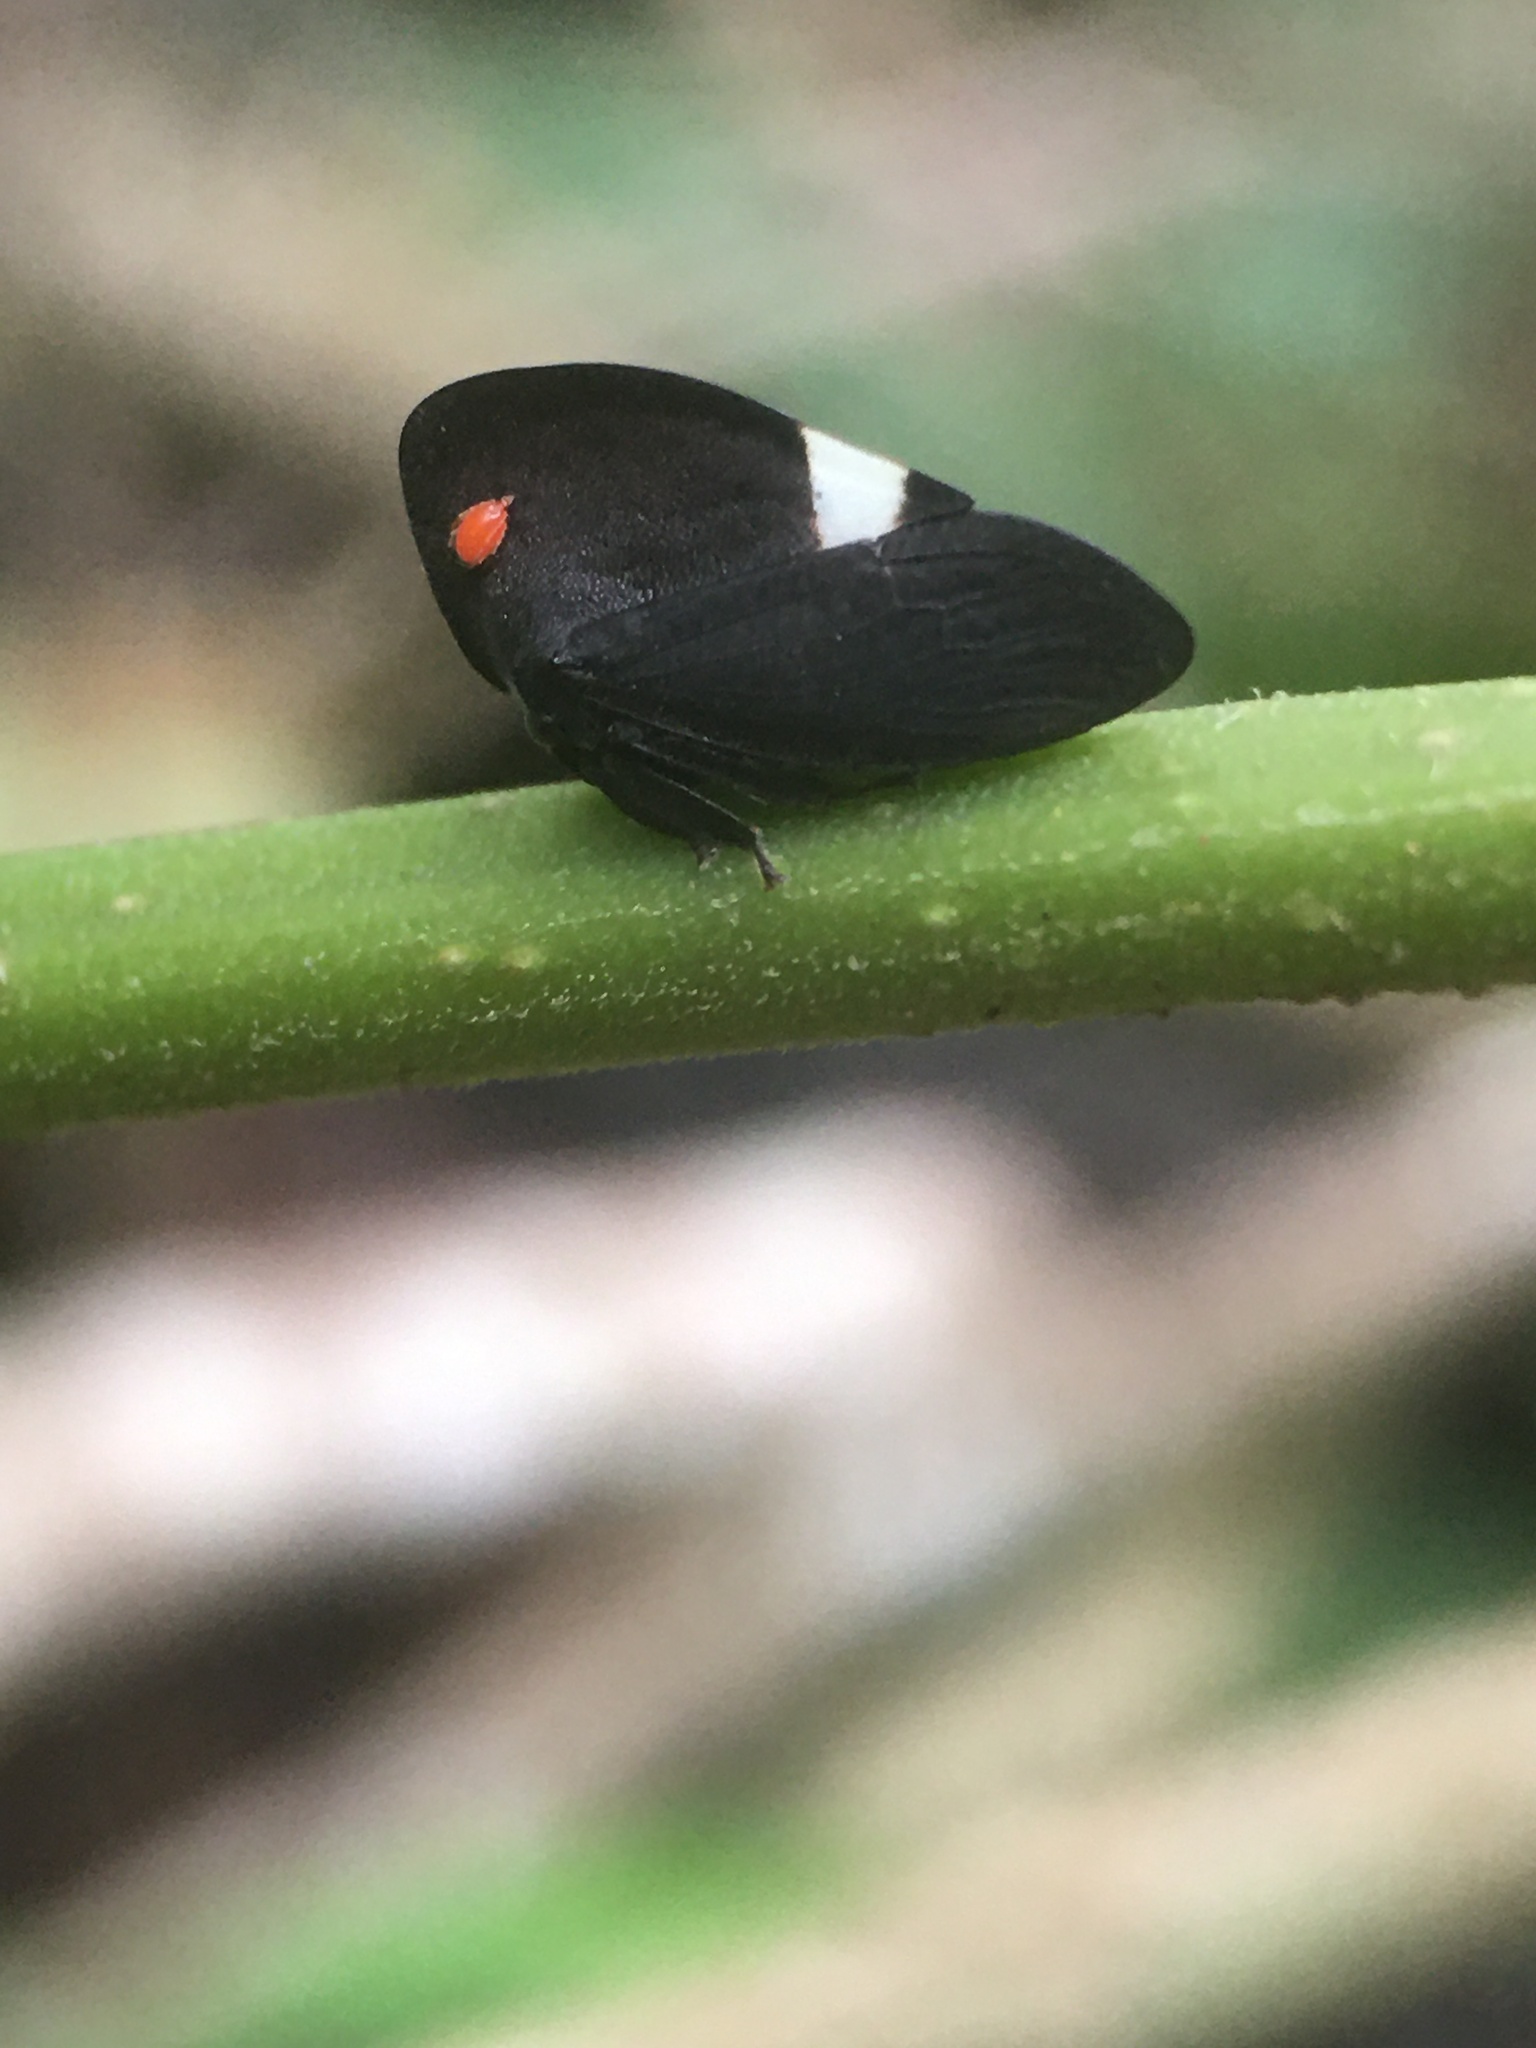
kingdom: Animalia
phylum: Arthropoda
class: Insecta
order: Hemiptera
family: Membracidae
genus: Membracis
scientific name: Membracis nigra
